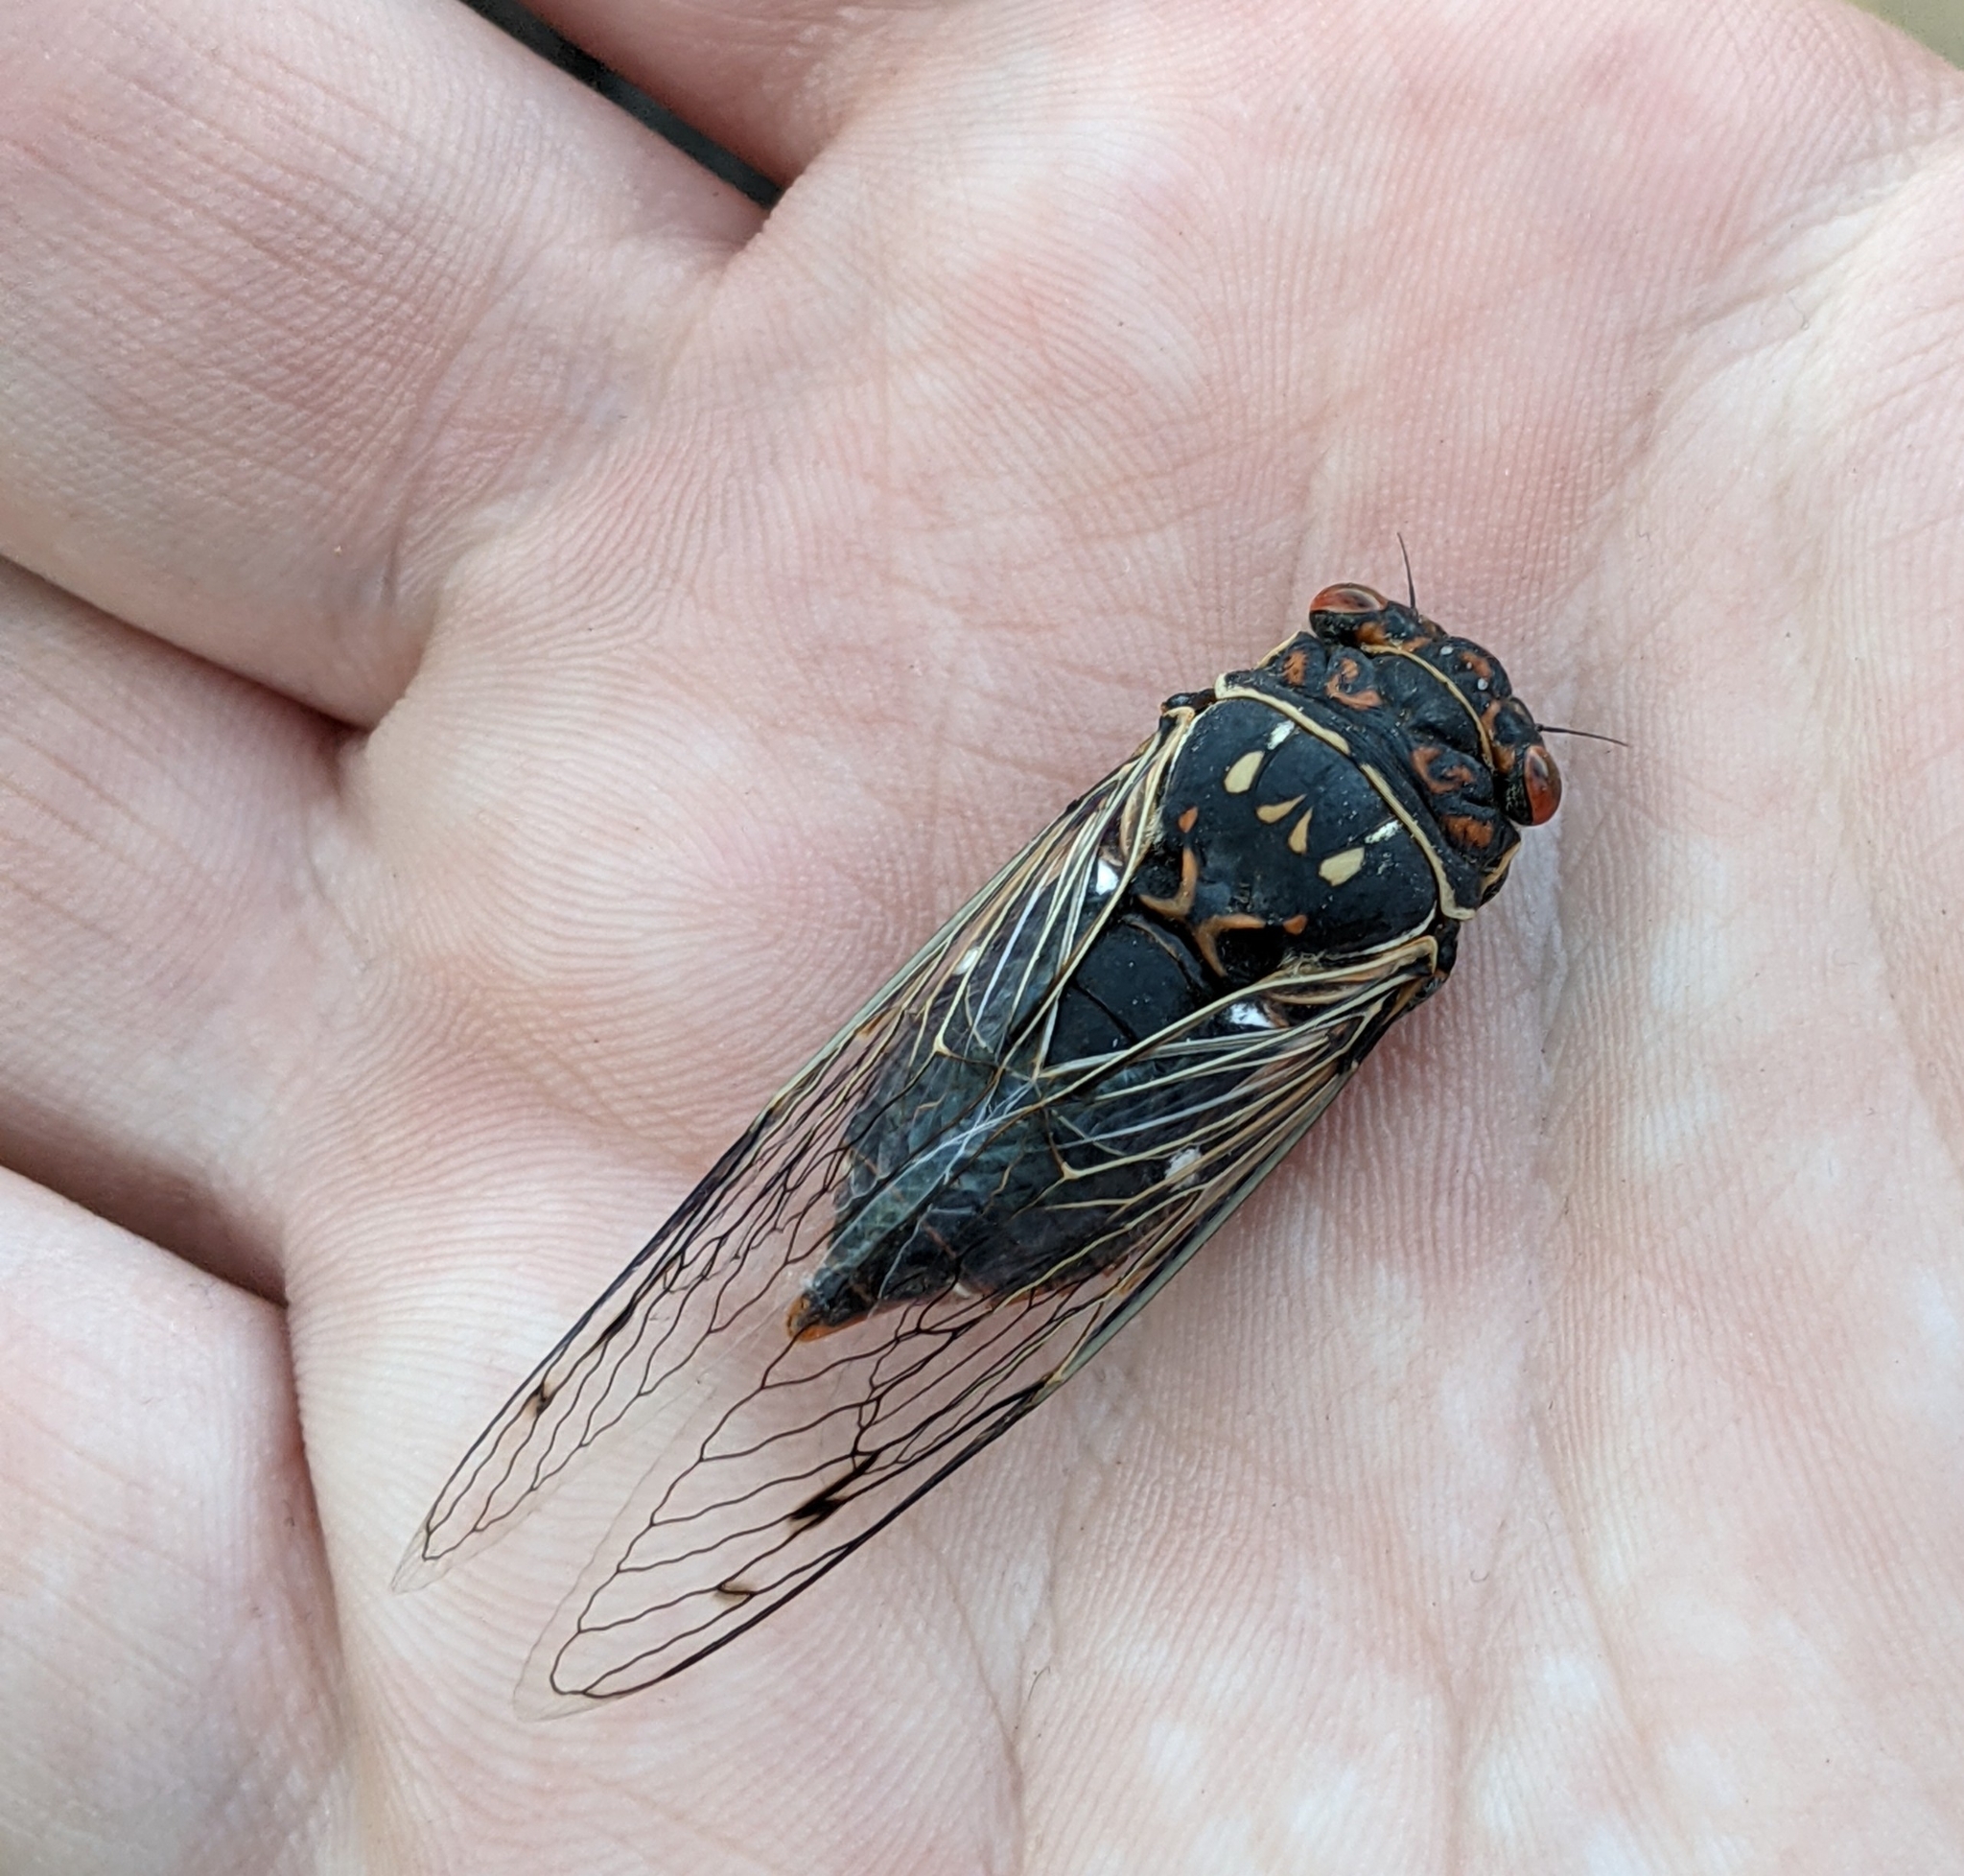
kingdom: Animalia
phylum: Arthropoda
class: Insecta
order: Hemiptera
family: Cicadidae
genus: Hadoa
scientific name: Hadoa duryi
